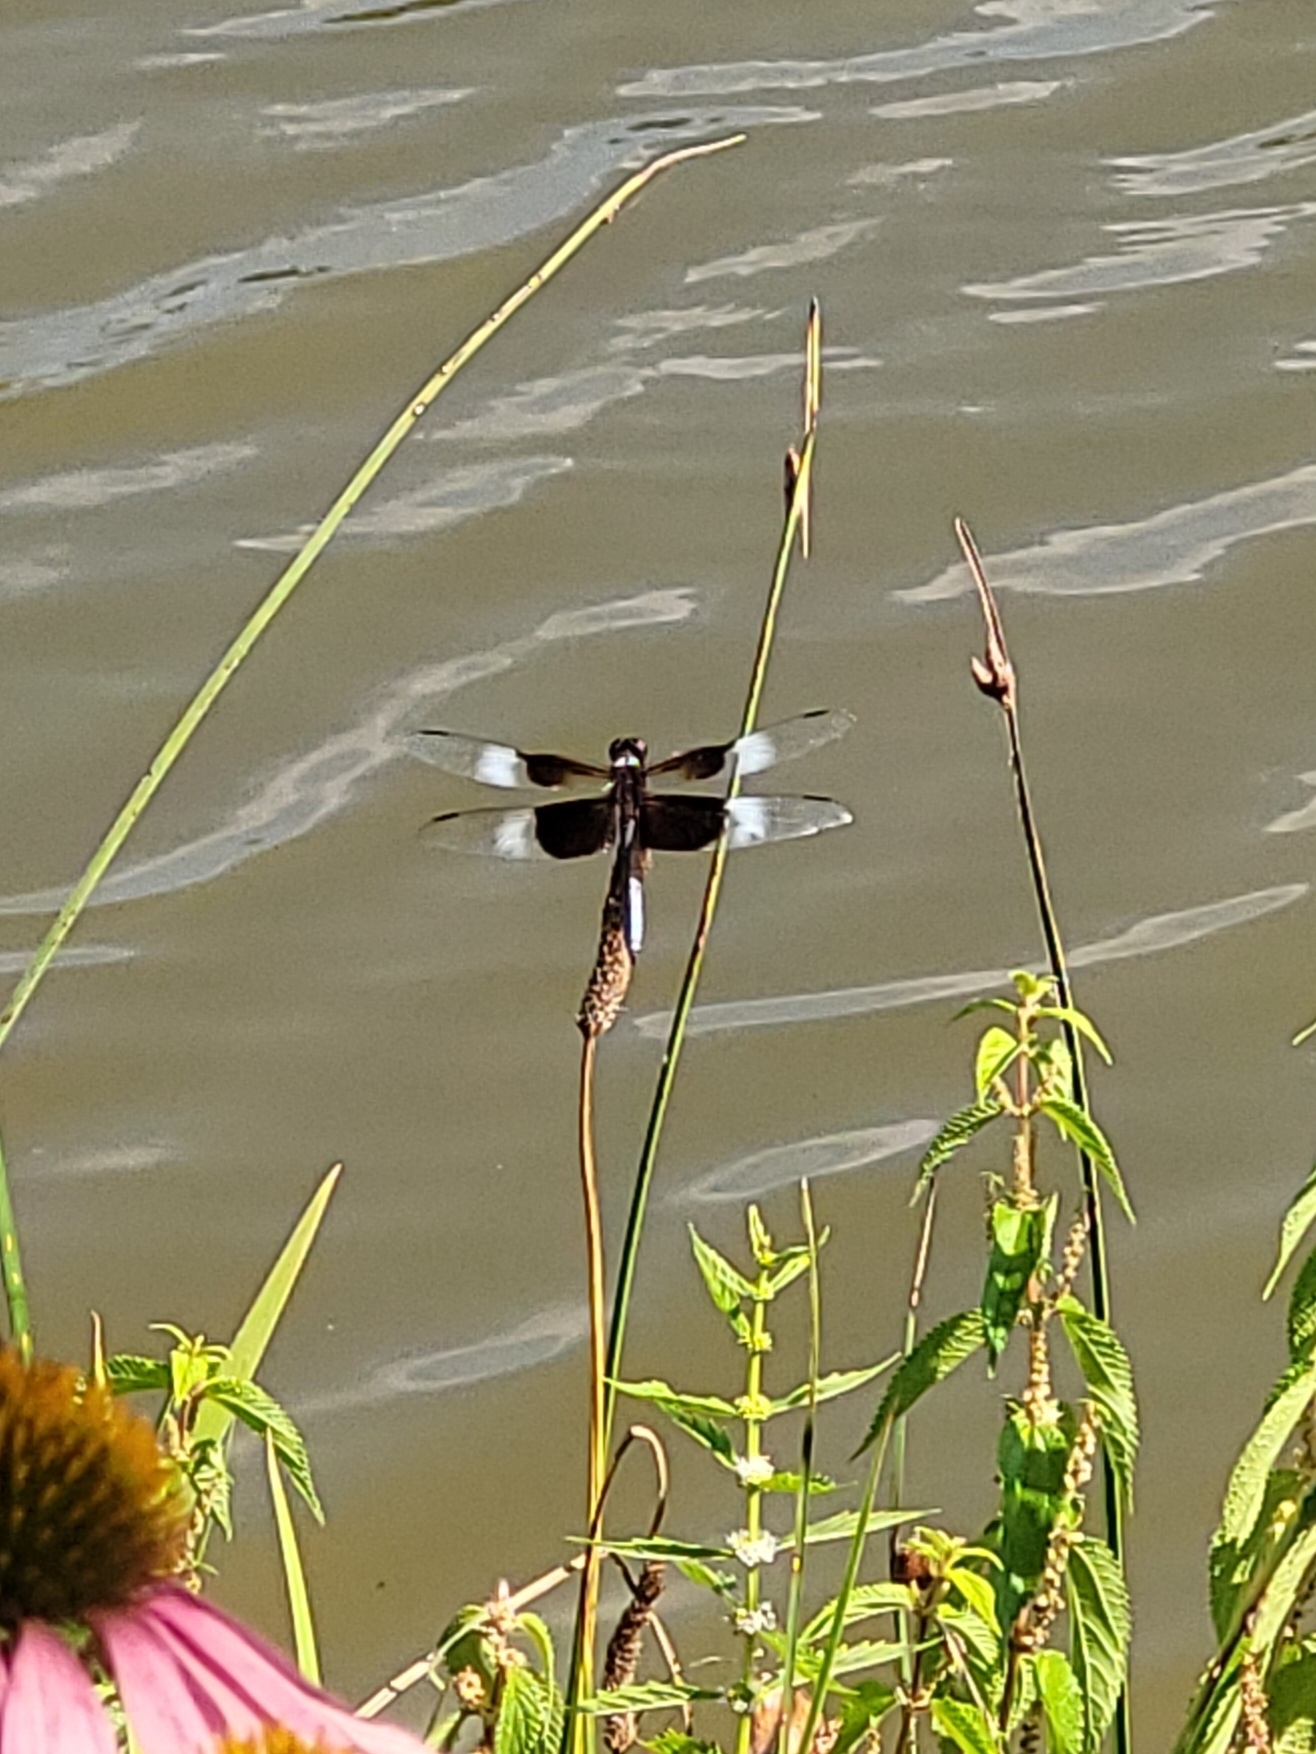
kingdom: Animalia
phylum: Arthropoda
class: Insecta
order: Odonata
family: Libellulidae
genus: Libellula
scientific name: Libellula luctuosa
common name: Widow skimmer
